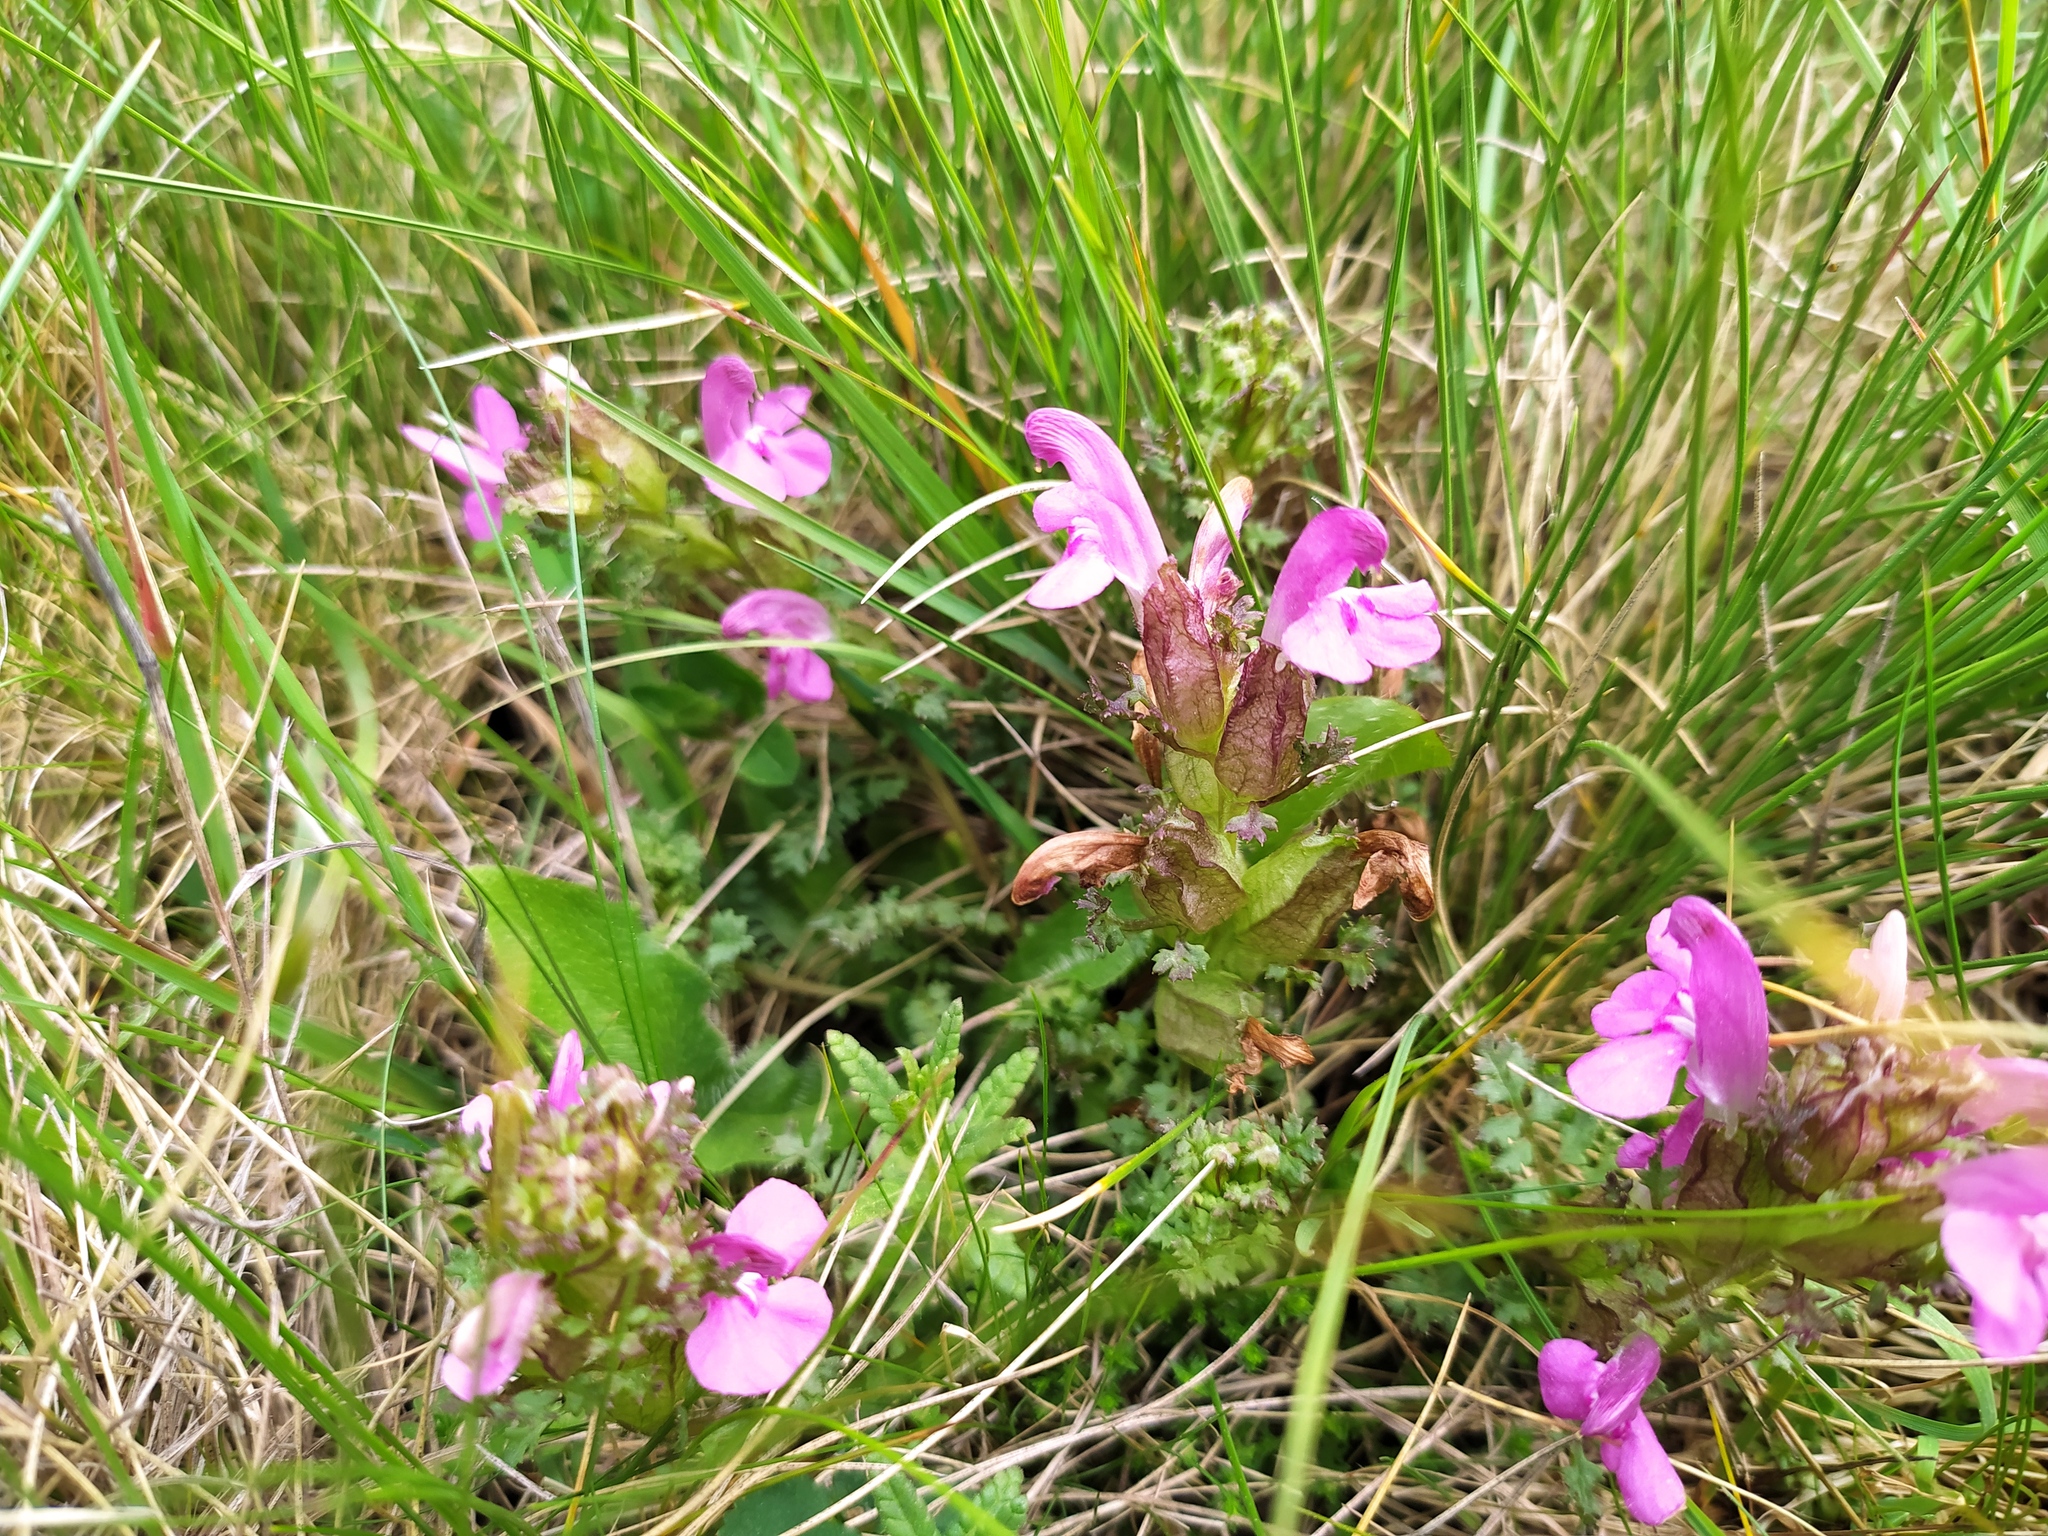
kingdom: Plantae
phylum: Tracheophyta
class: Magnoliopsida
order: Lamiales
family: Orobanchaceae
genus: Pedicularis
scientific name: Pedicularis sylvatica
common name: Lousewort
